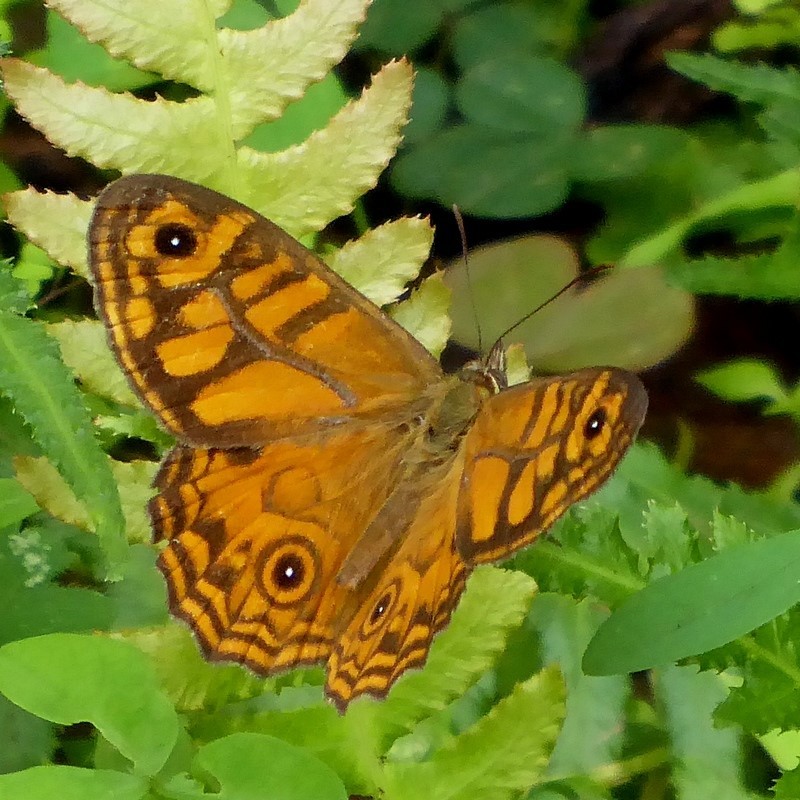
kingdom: Animalia
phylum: Arthropoda
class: Insecta
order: Lepidoptera
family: Nymphalidae
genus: Geitoneura
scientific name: Geitoneura acantha
